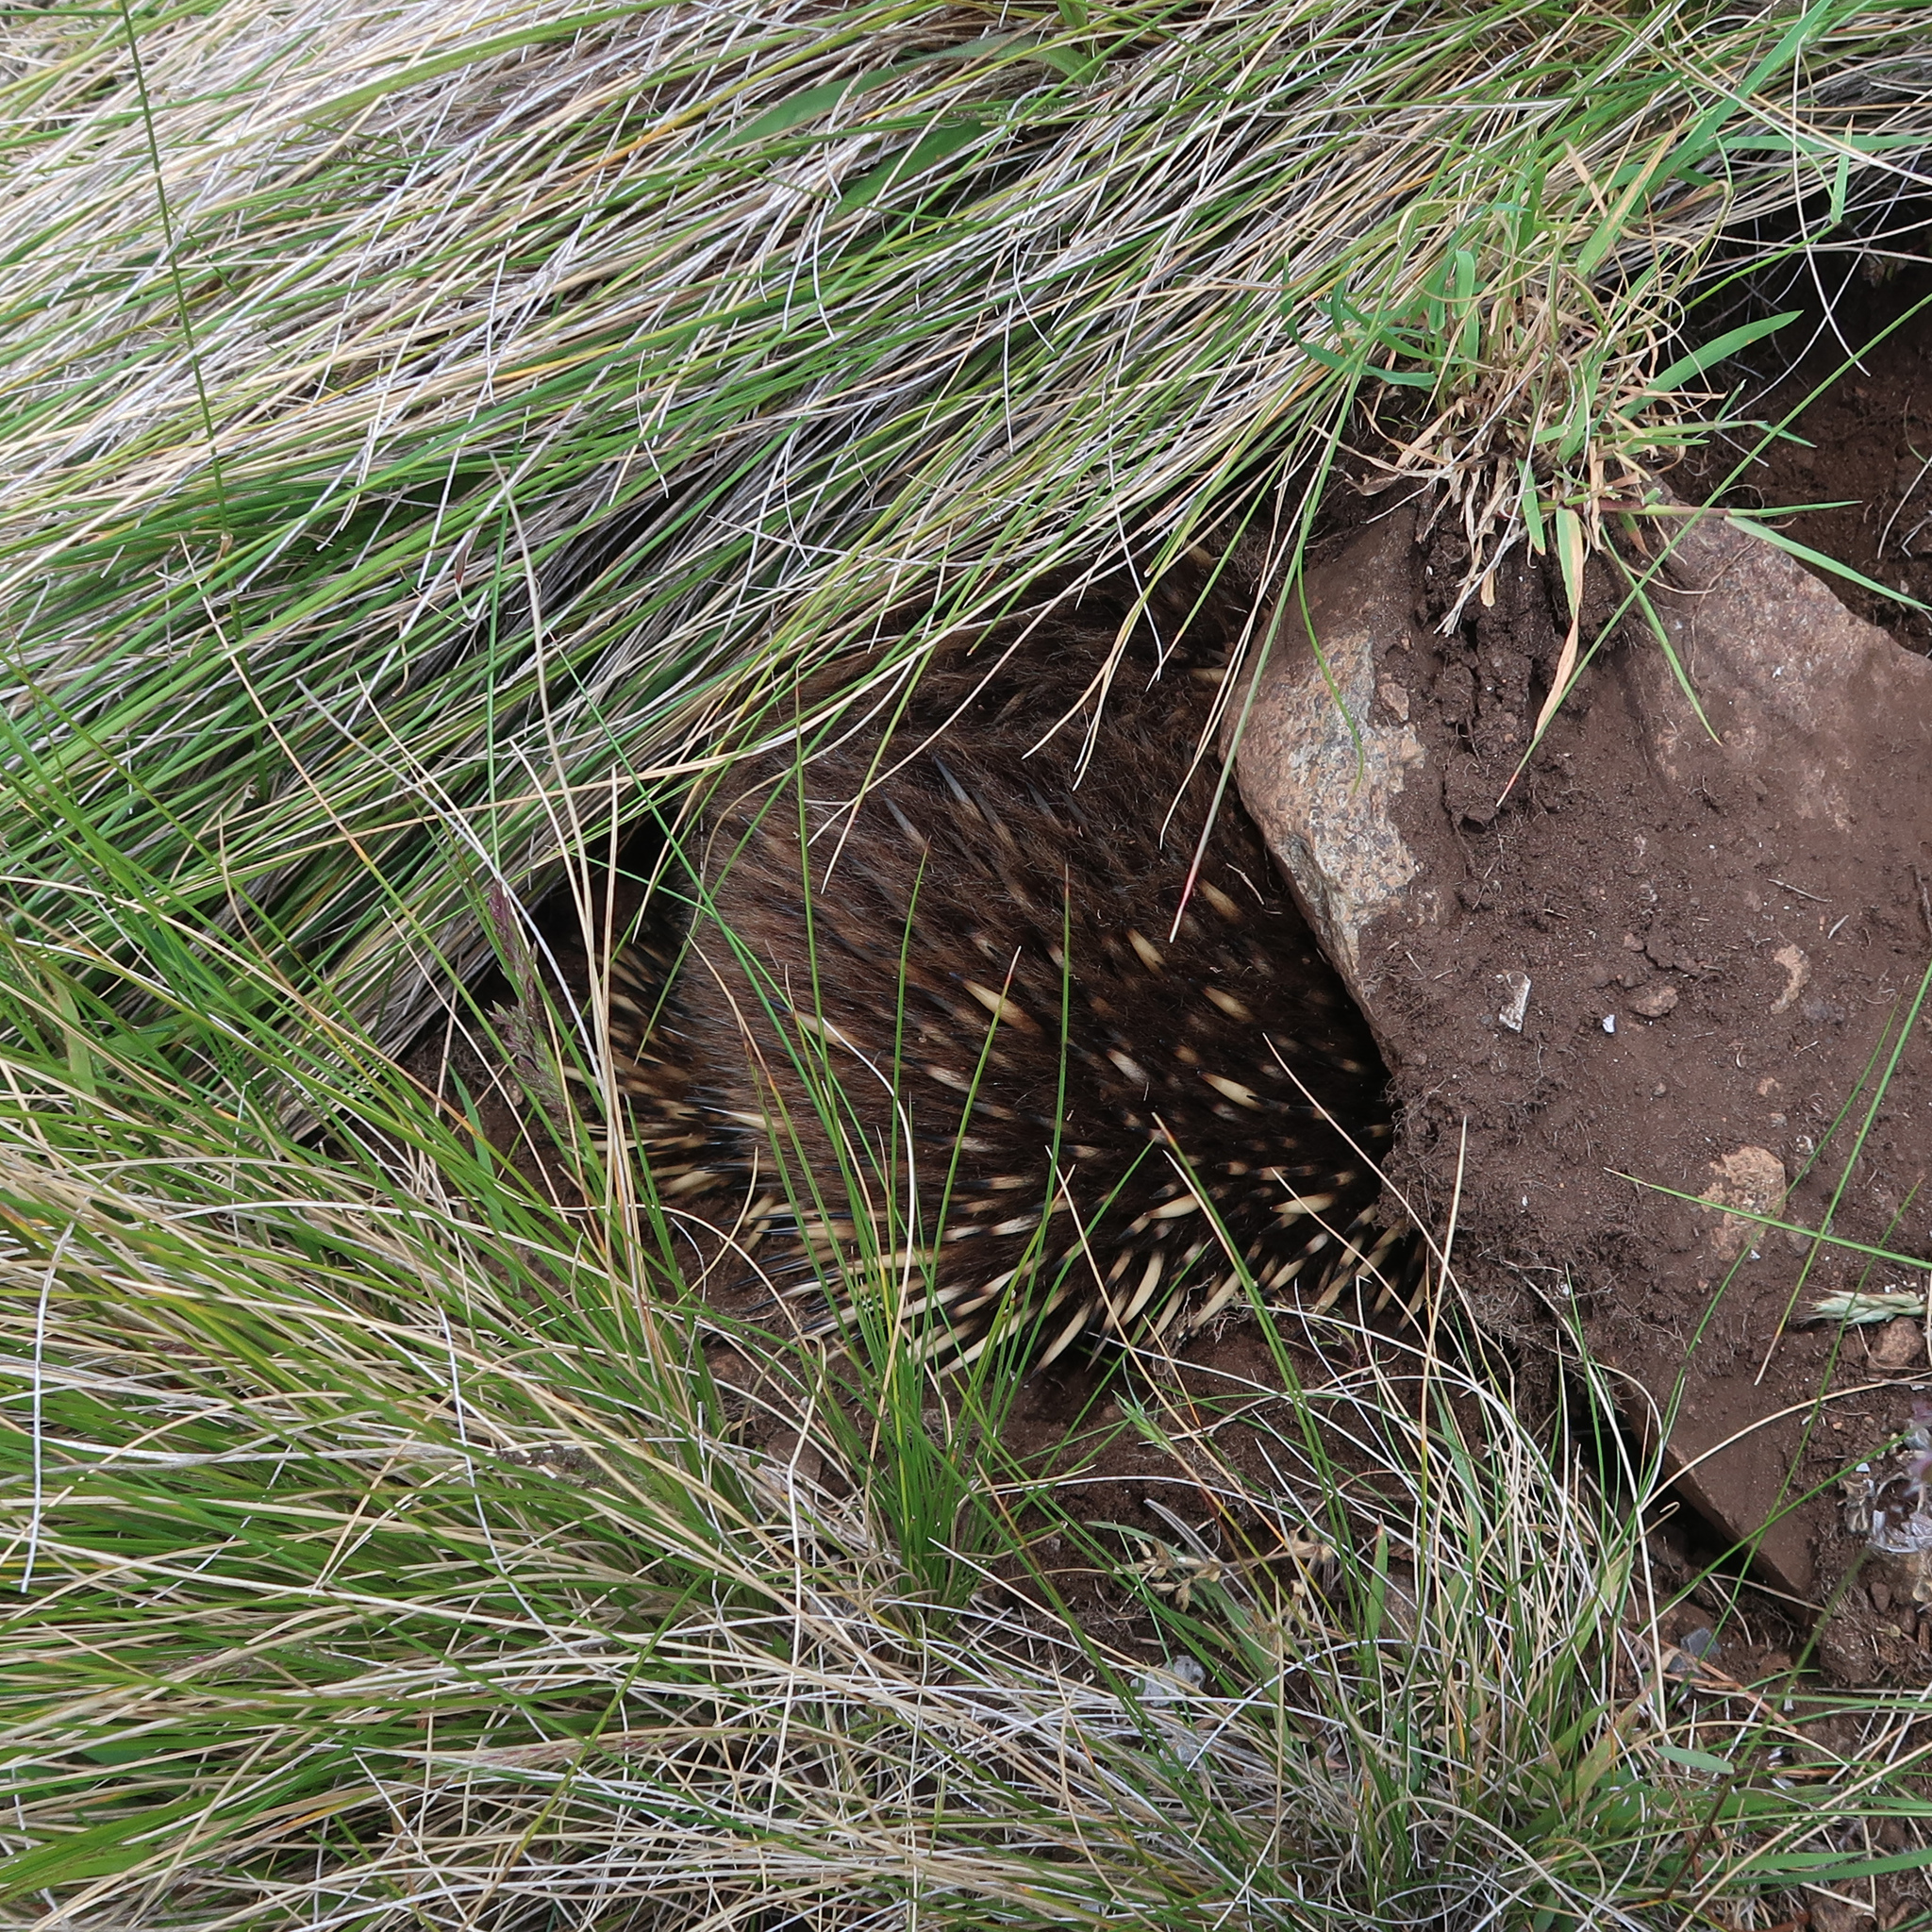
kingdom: Animalia
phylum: Chordata
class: Mammalia
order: Monotremata
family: Tachyglossidae
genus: Tachyglossus
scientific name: Tachyglossus aculeatus
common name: Short-beaked echidna
